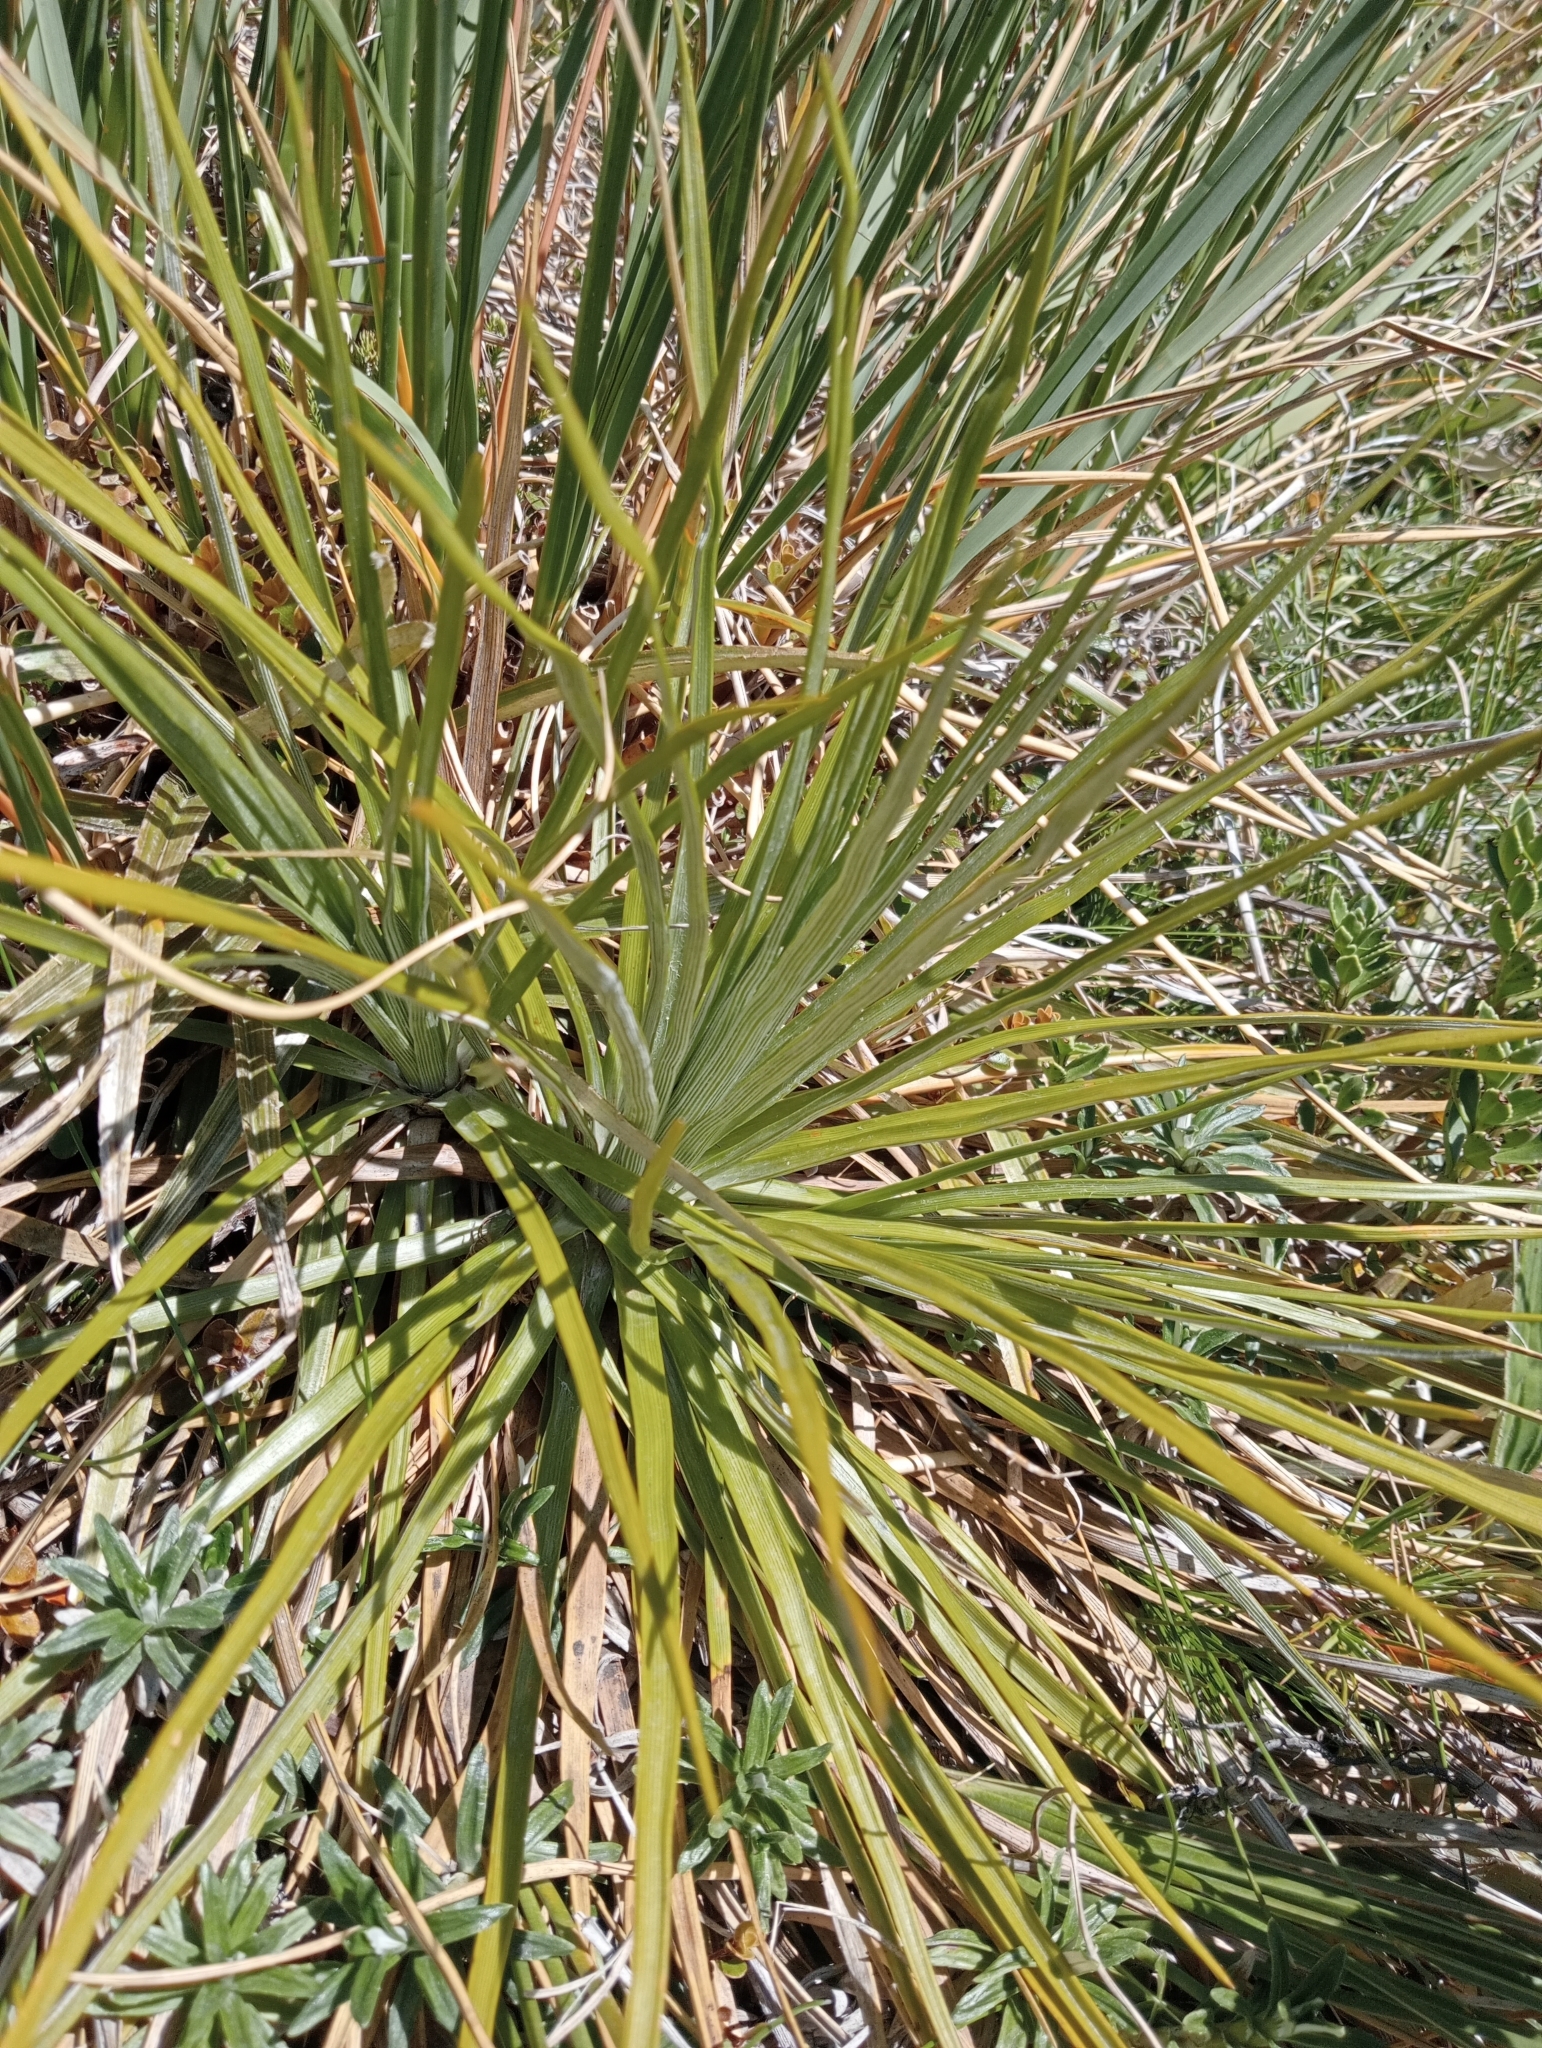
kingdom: Plantae
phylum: Tracheophyta
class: Magnoliopsida
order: Asterales
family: Asteraceae
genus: Celmisia
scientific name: Celmisia lyallii
